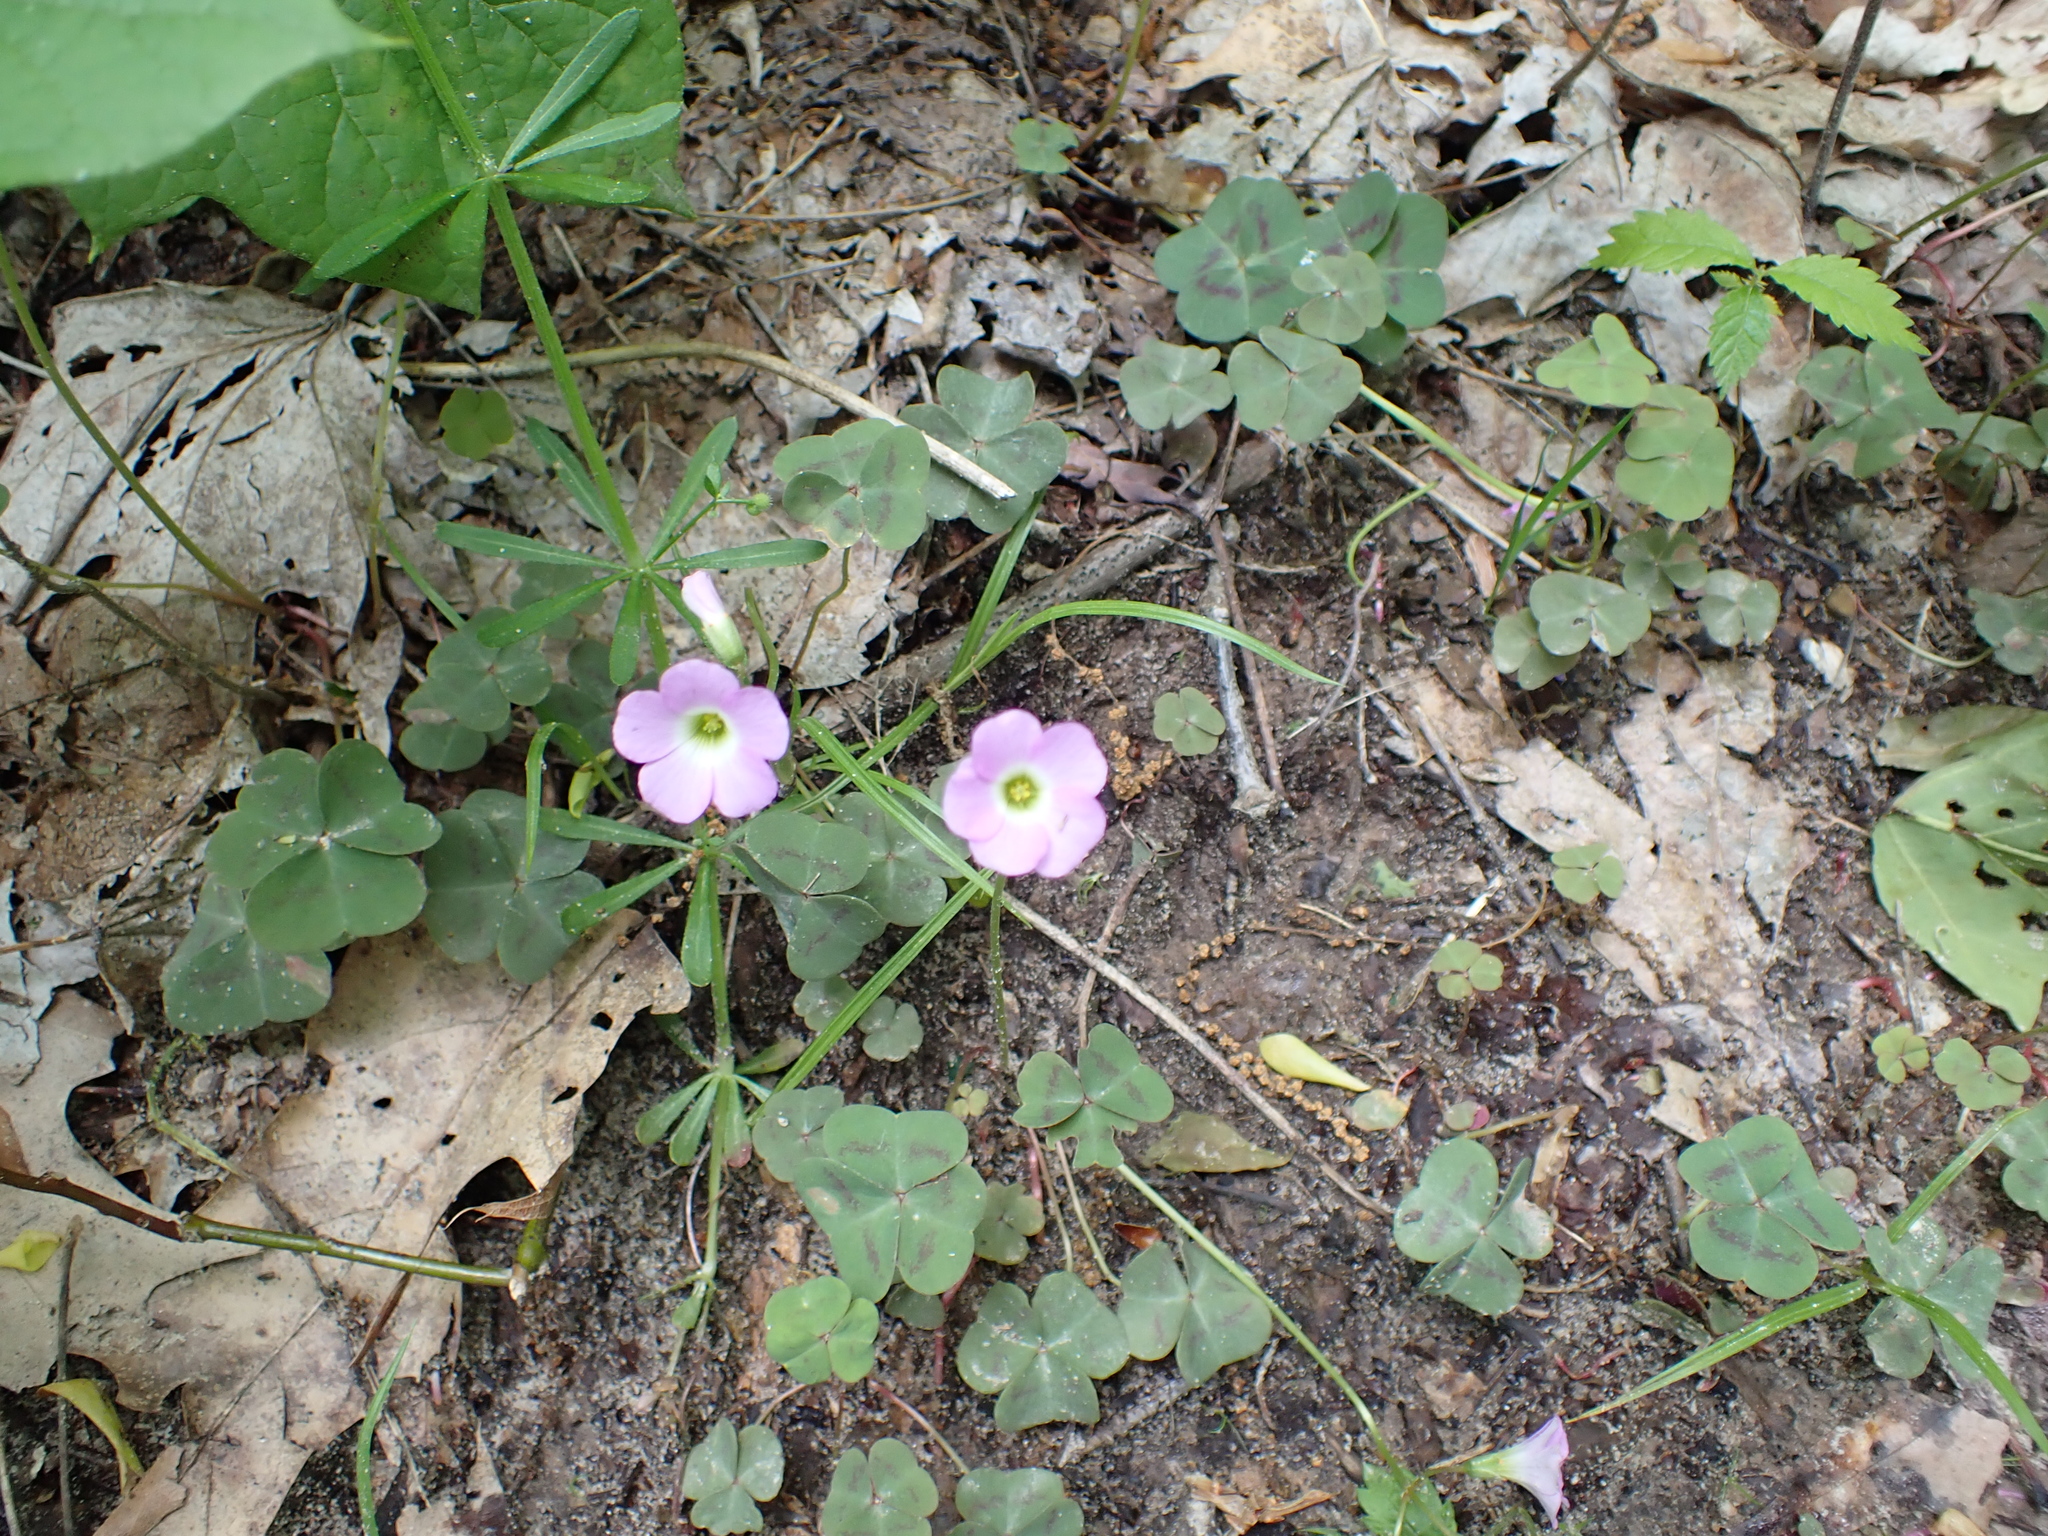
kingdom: Plantae
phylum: Tracheophyta
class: Magnoliopsida
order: Oxalidales
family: Oxalidaceae
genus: Oxalis
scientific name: Oxalis violacea
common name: Violet wood-sorrel
